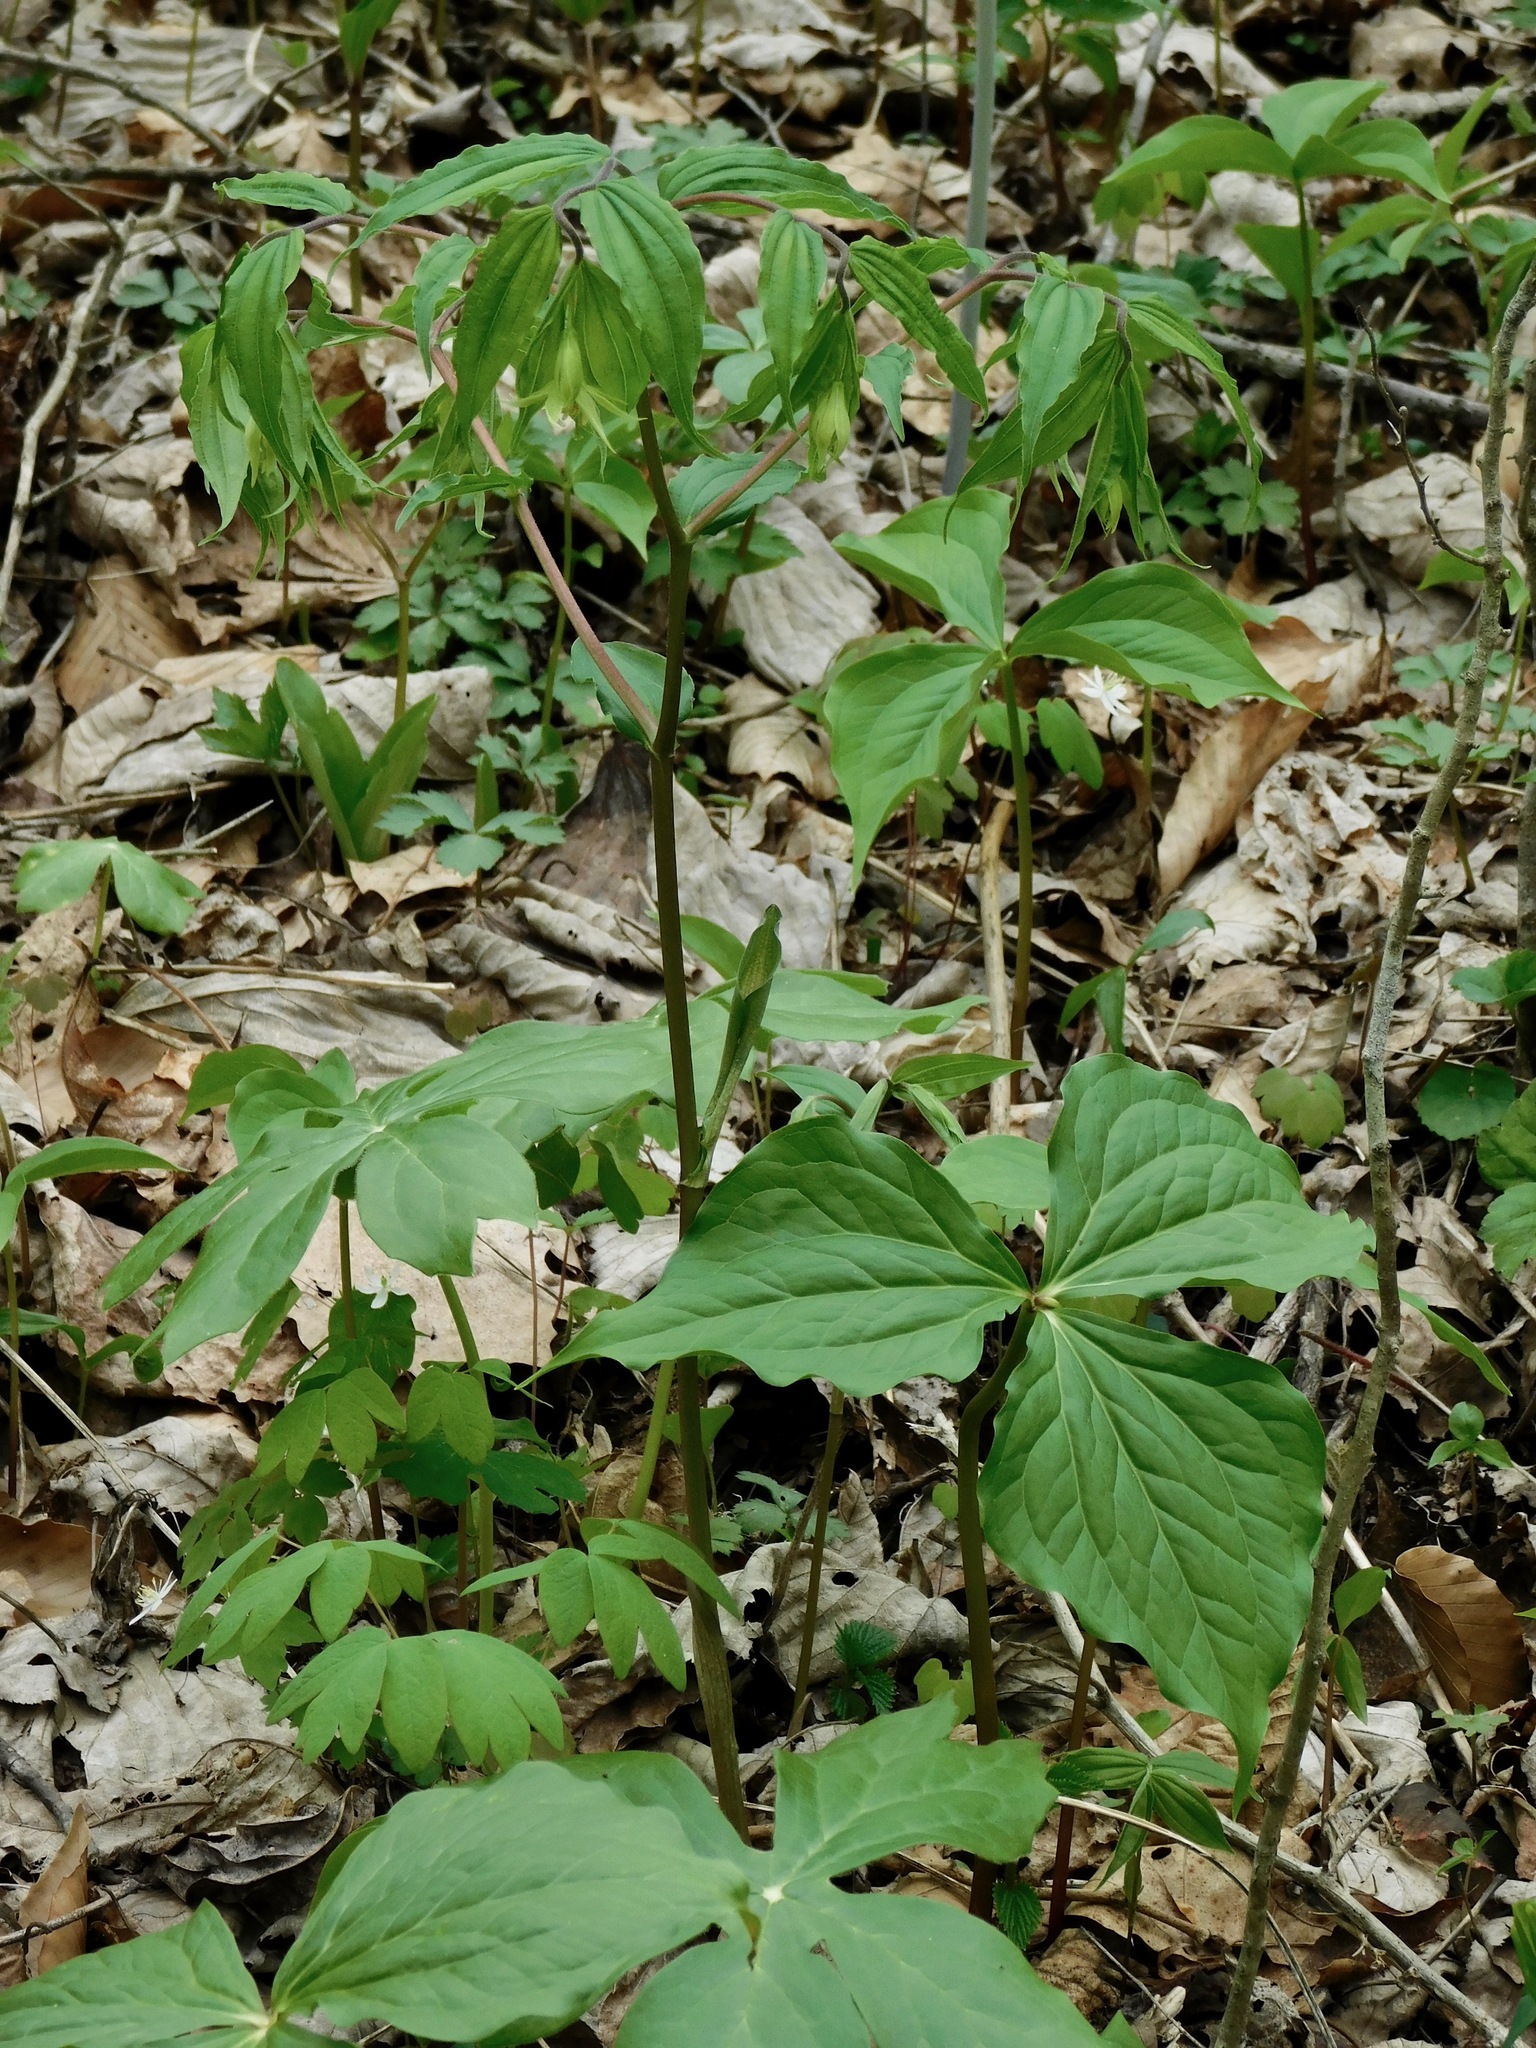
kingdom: Plantae
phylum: Tracheophyta
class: Liliopsida
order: Liliales
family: Liliaceae
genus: Prosartes
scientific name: Prosartes lanuginosa
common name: Hairy mandarin
